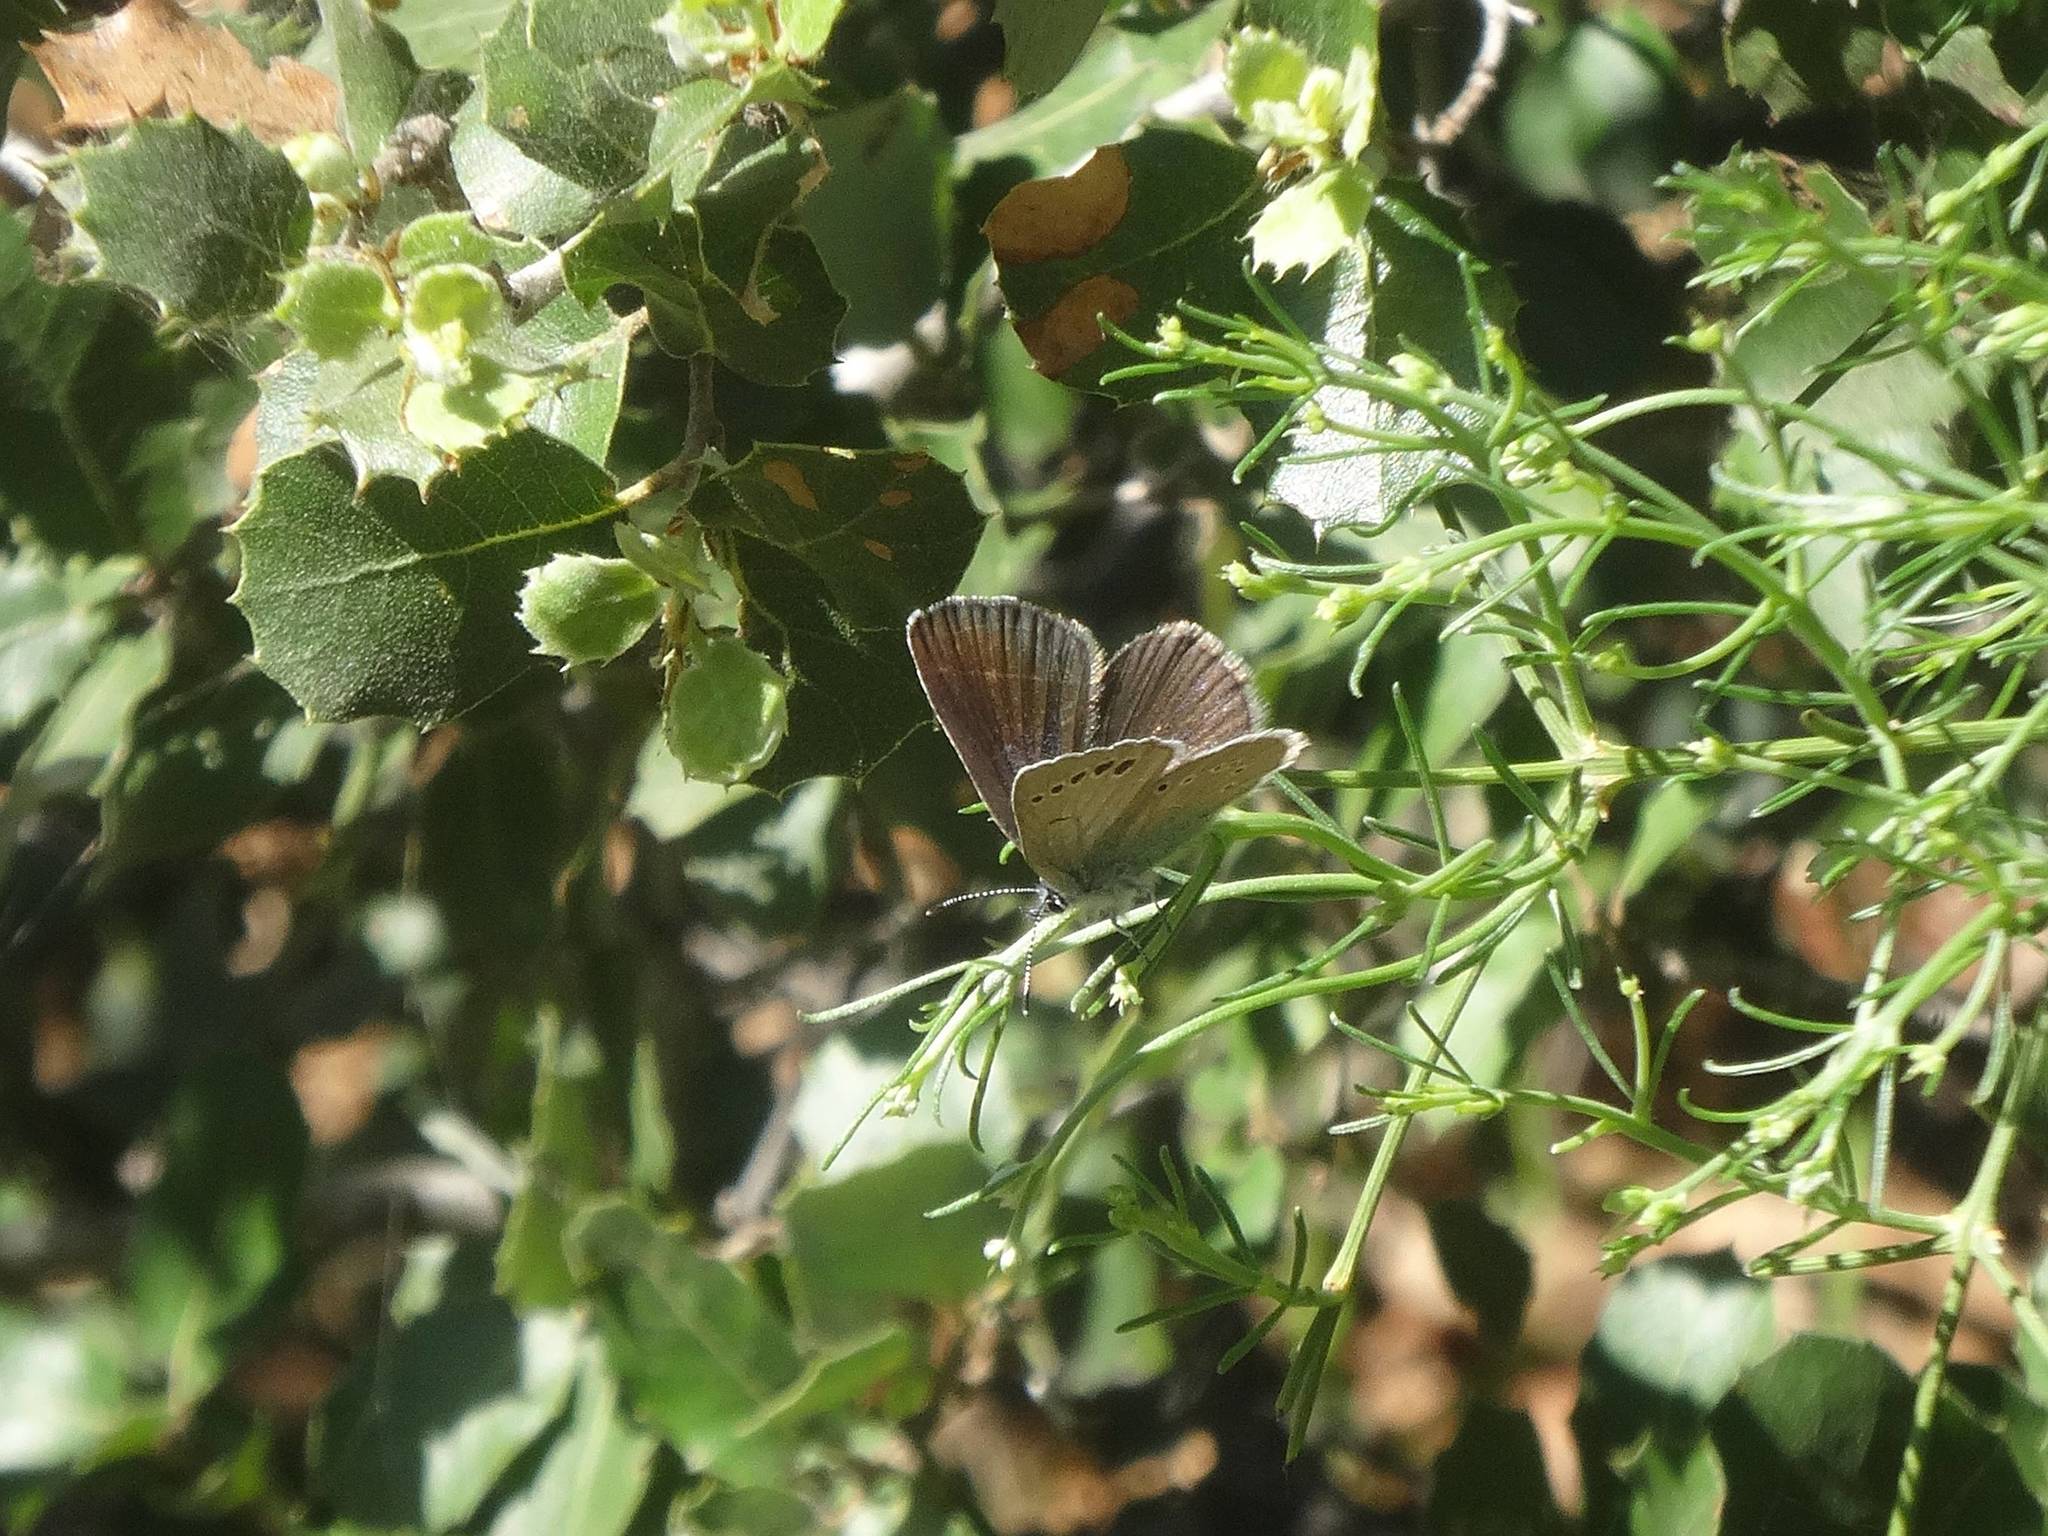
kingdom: Animalia
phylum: Arthropoda
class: Insecta
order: Lepidoptera
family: Lycaenidae
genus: Glaucopsyche
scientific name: Glaucopsyche alexis
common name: Green-underside blue
